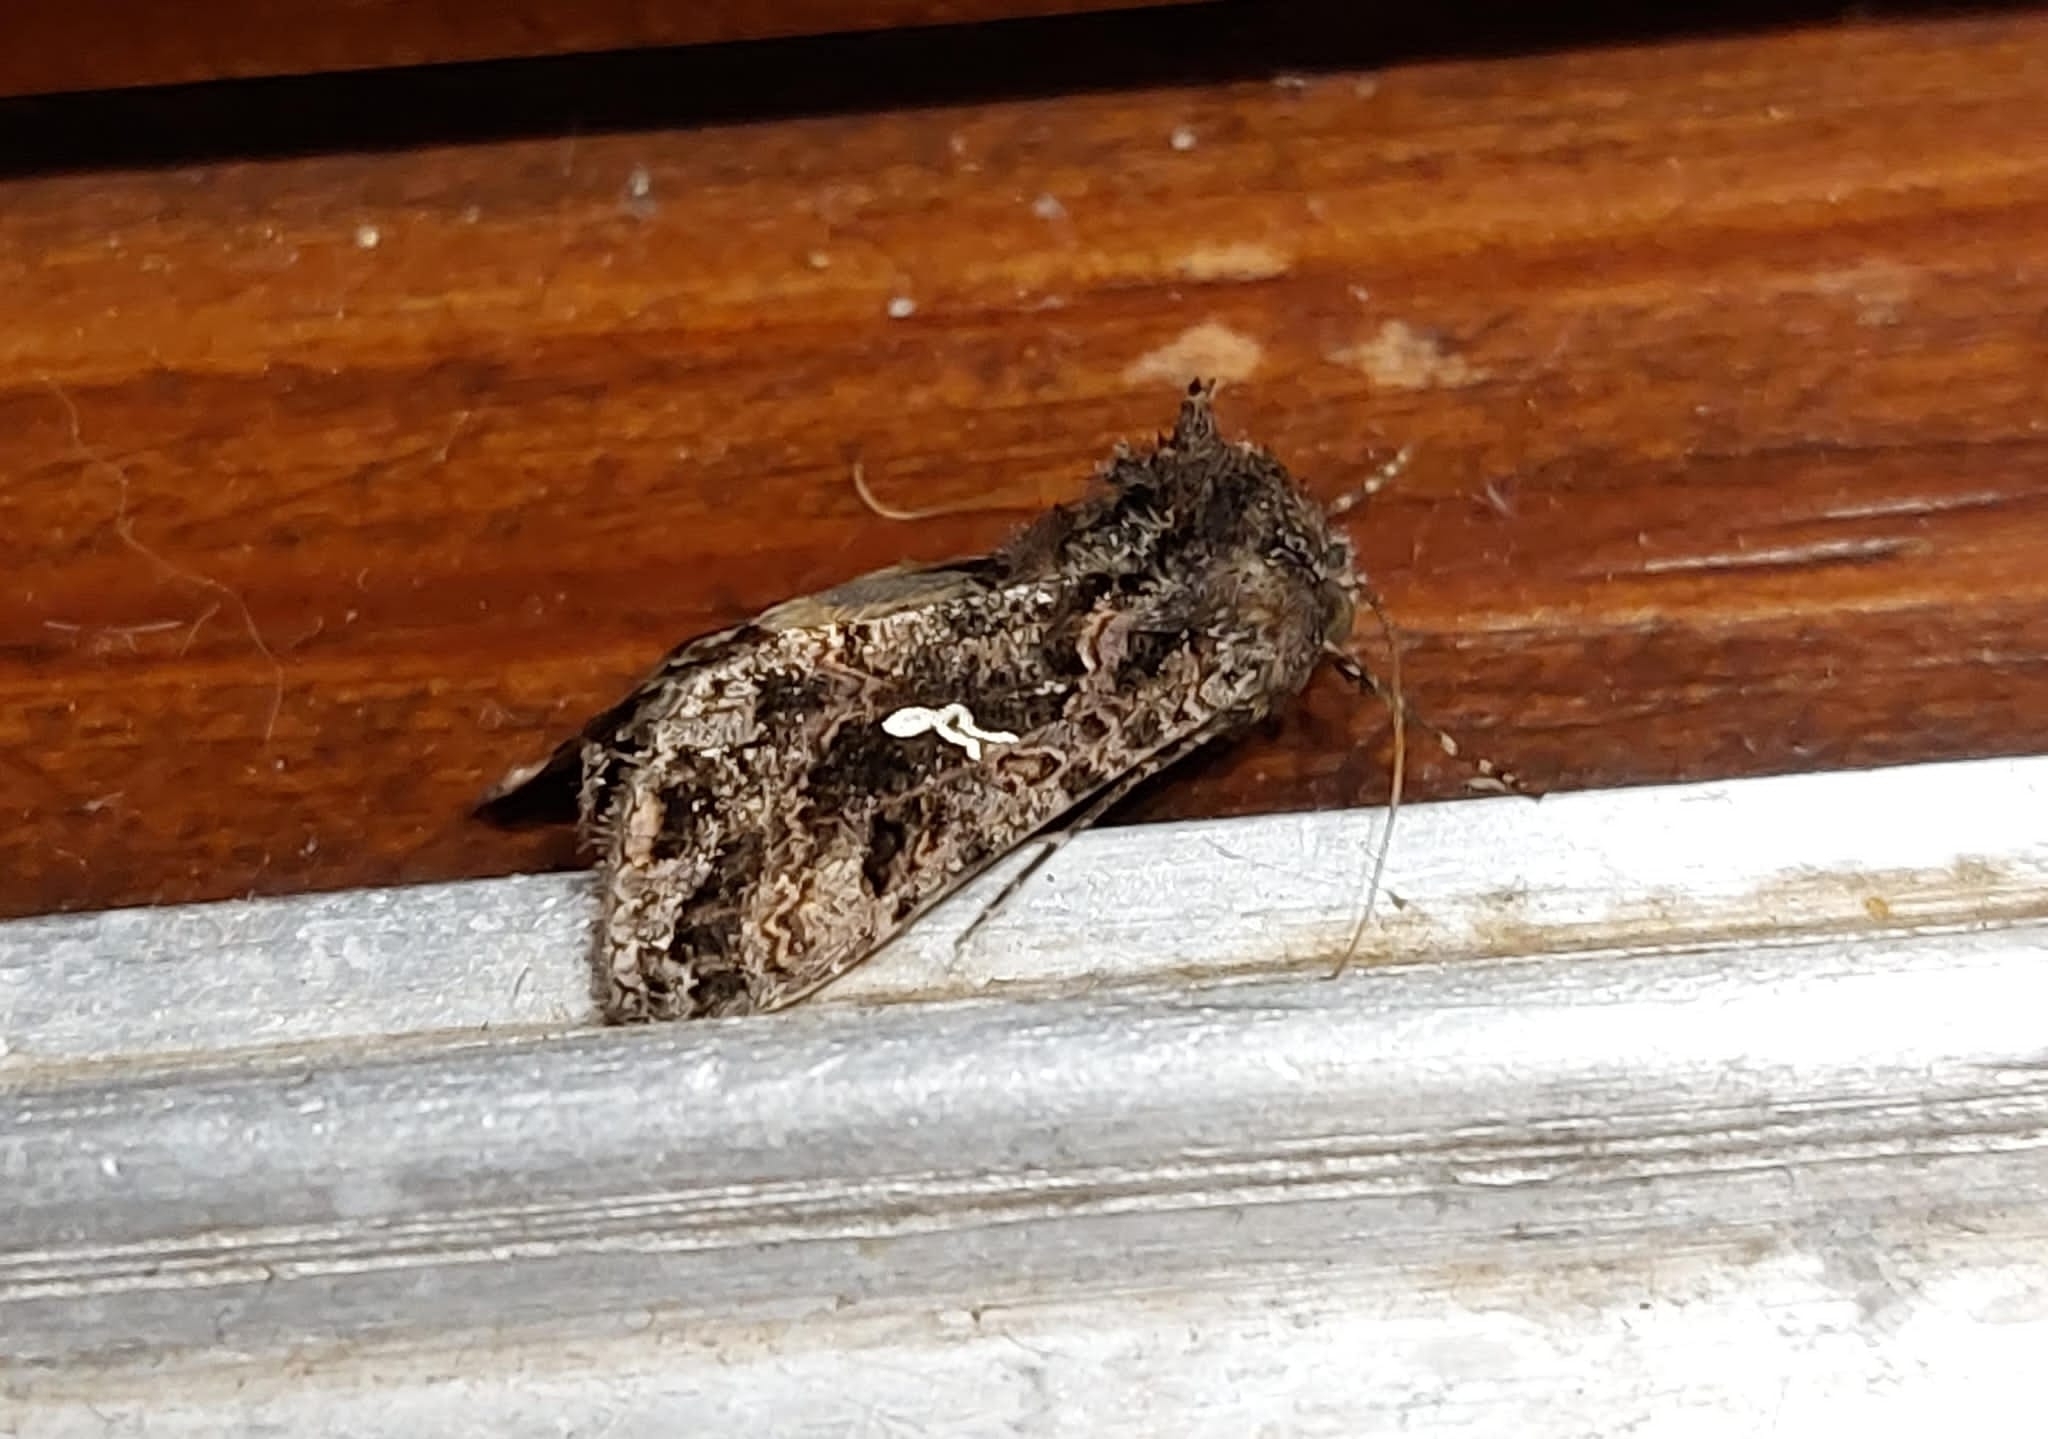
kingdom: Animalia
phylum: Arthropoda
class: Insecta
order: Lepidoptera
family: Noctuidae
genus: Ctenoplusia
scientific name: Ctenoplusia limbirena
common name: Scar bank gem
